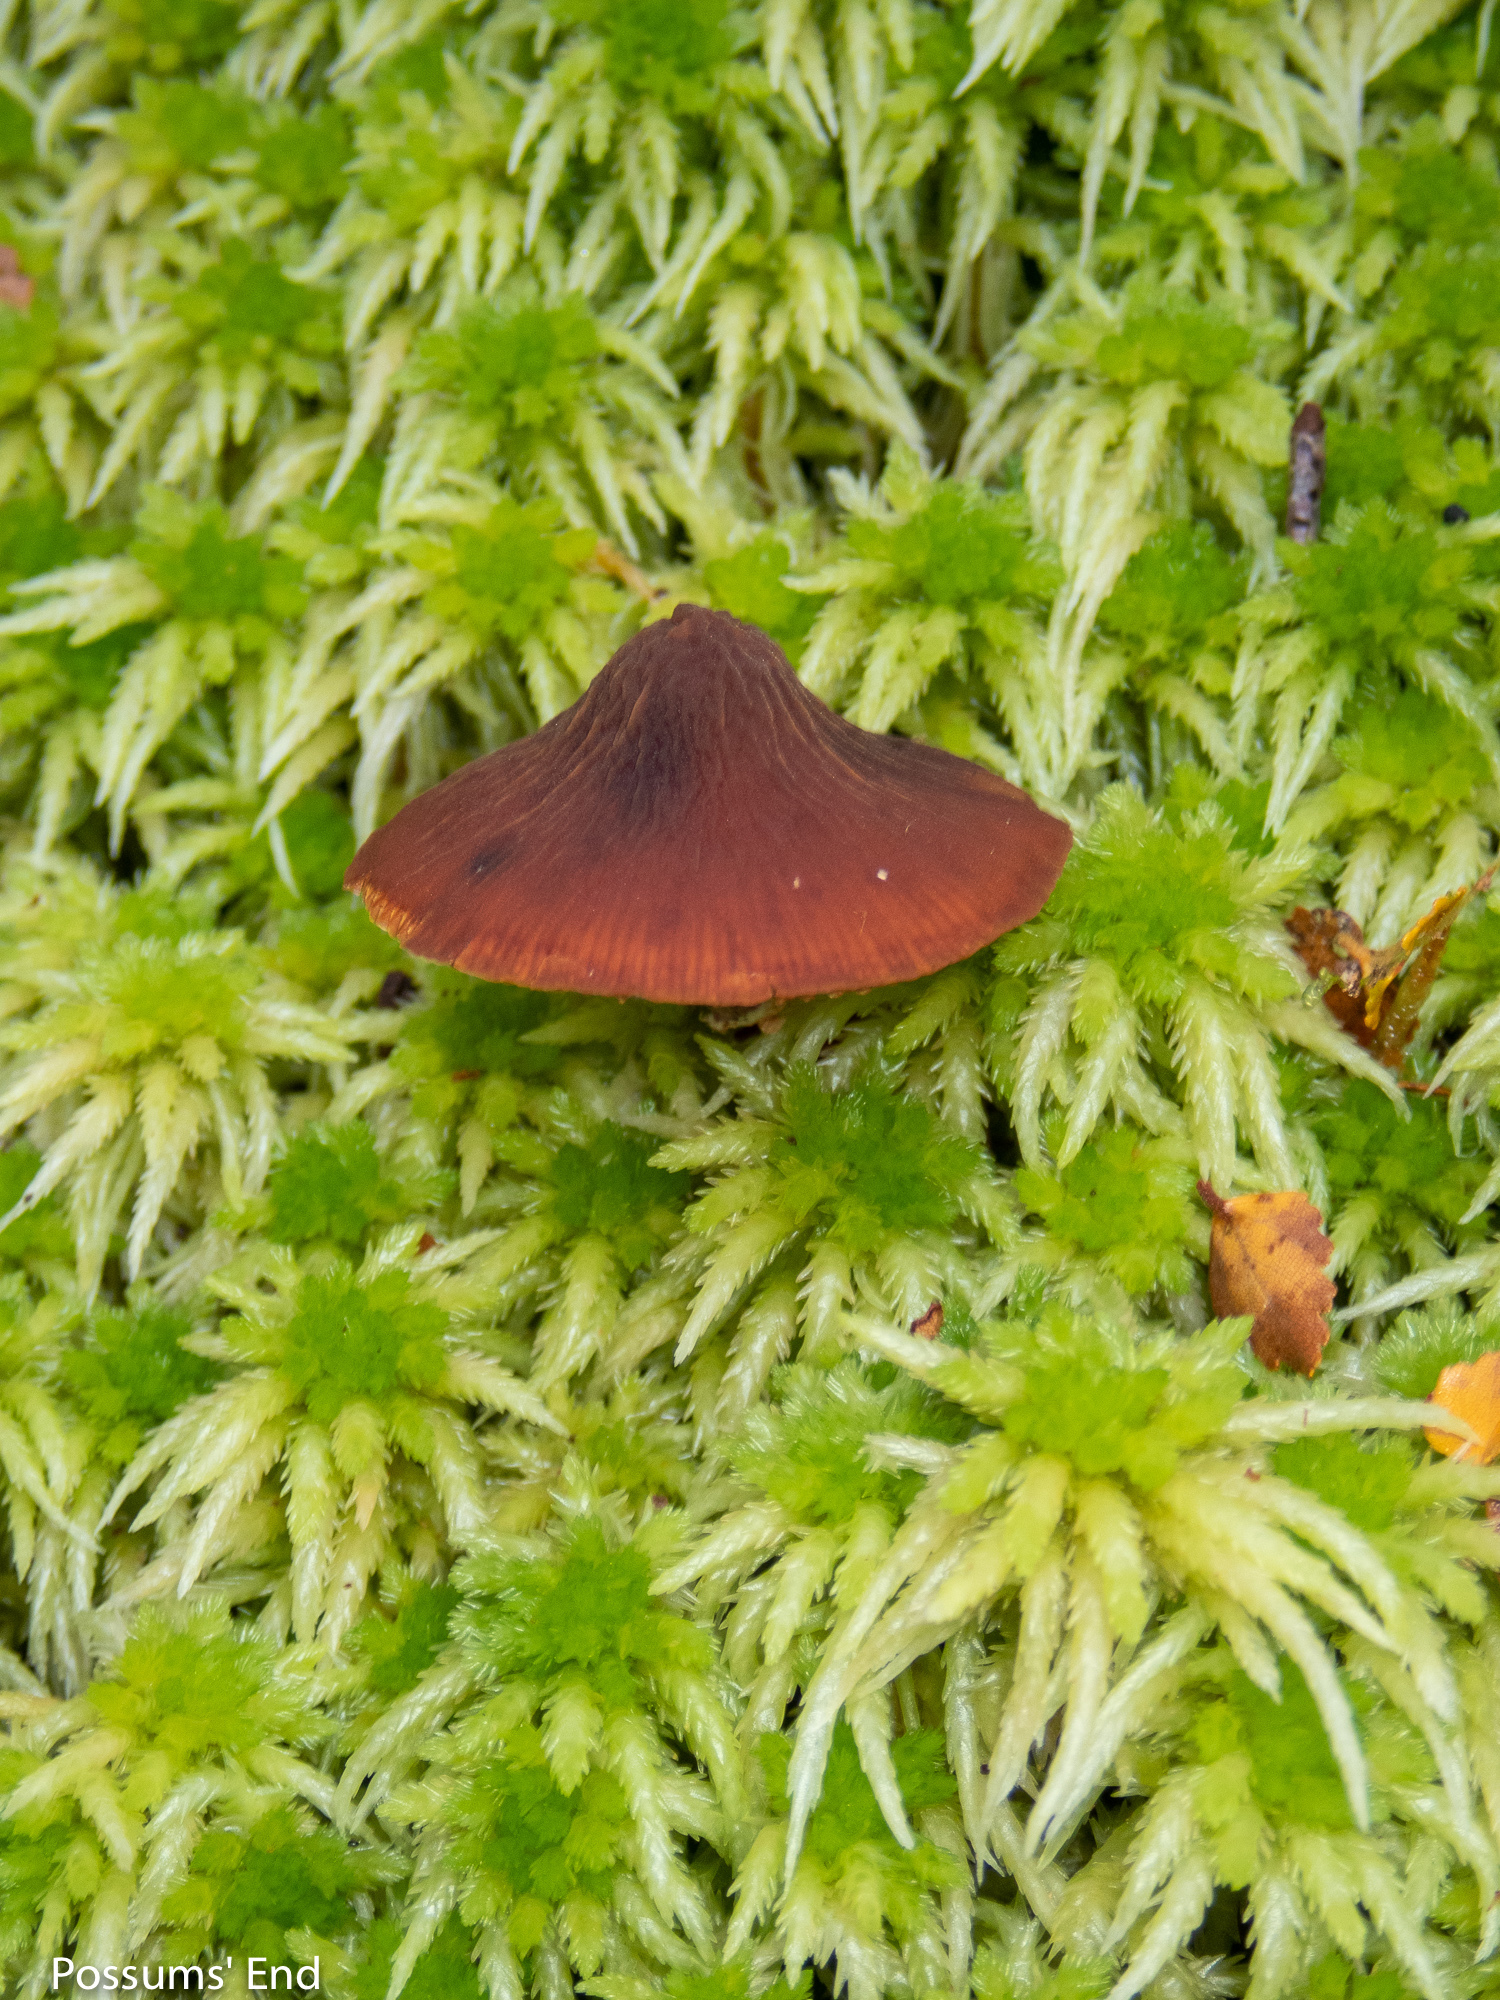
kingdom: Fungi
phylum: Basidiomycota
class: Agaricomycetes
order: Agaricales
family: Bolbitiaceae
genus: Descolea
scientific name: Descolea phlebophora
